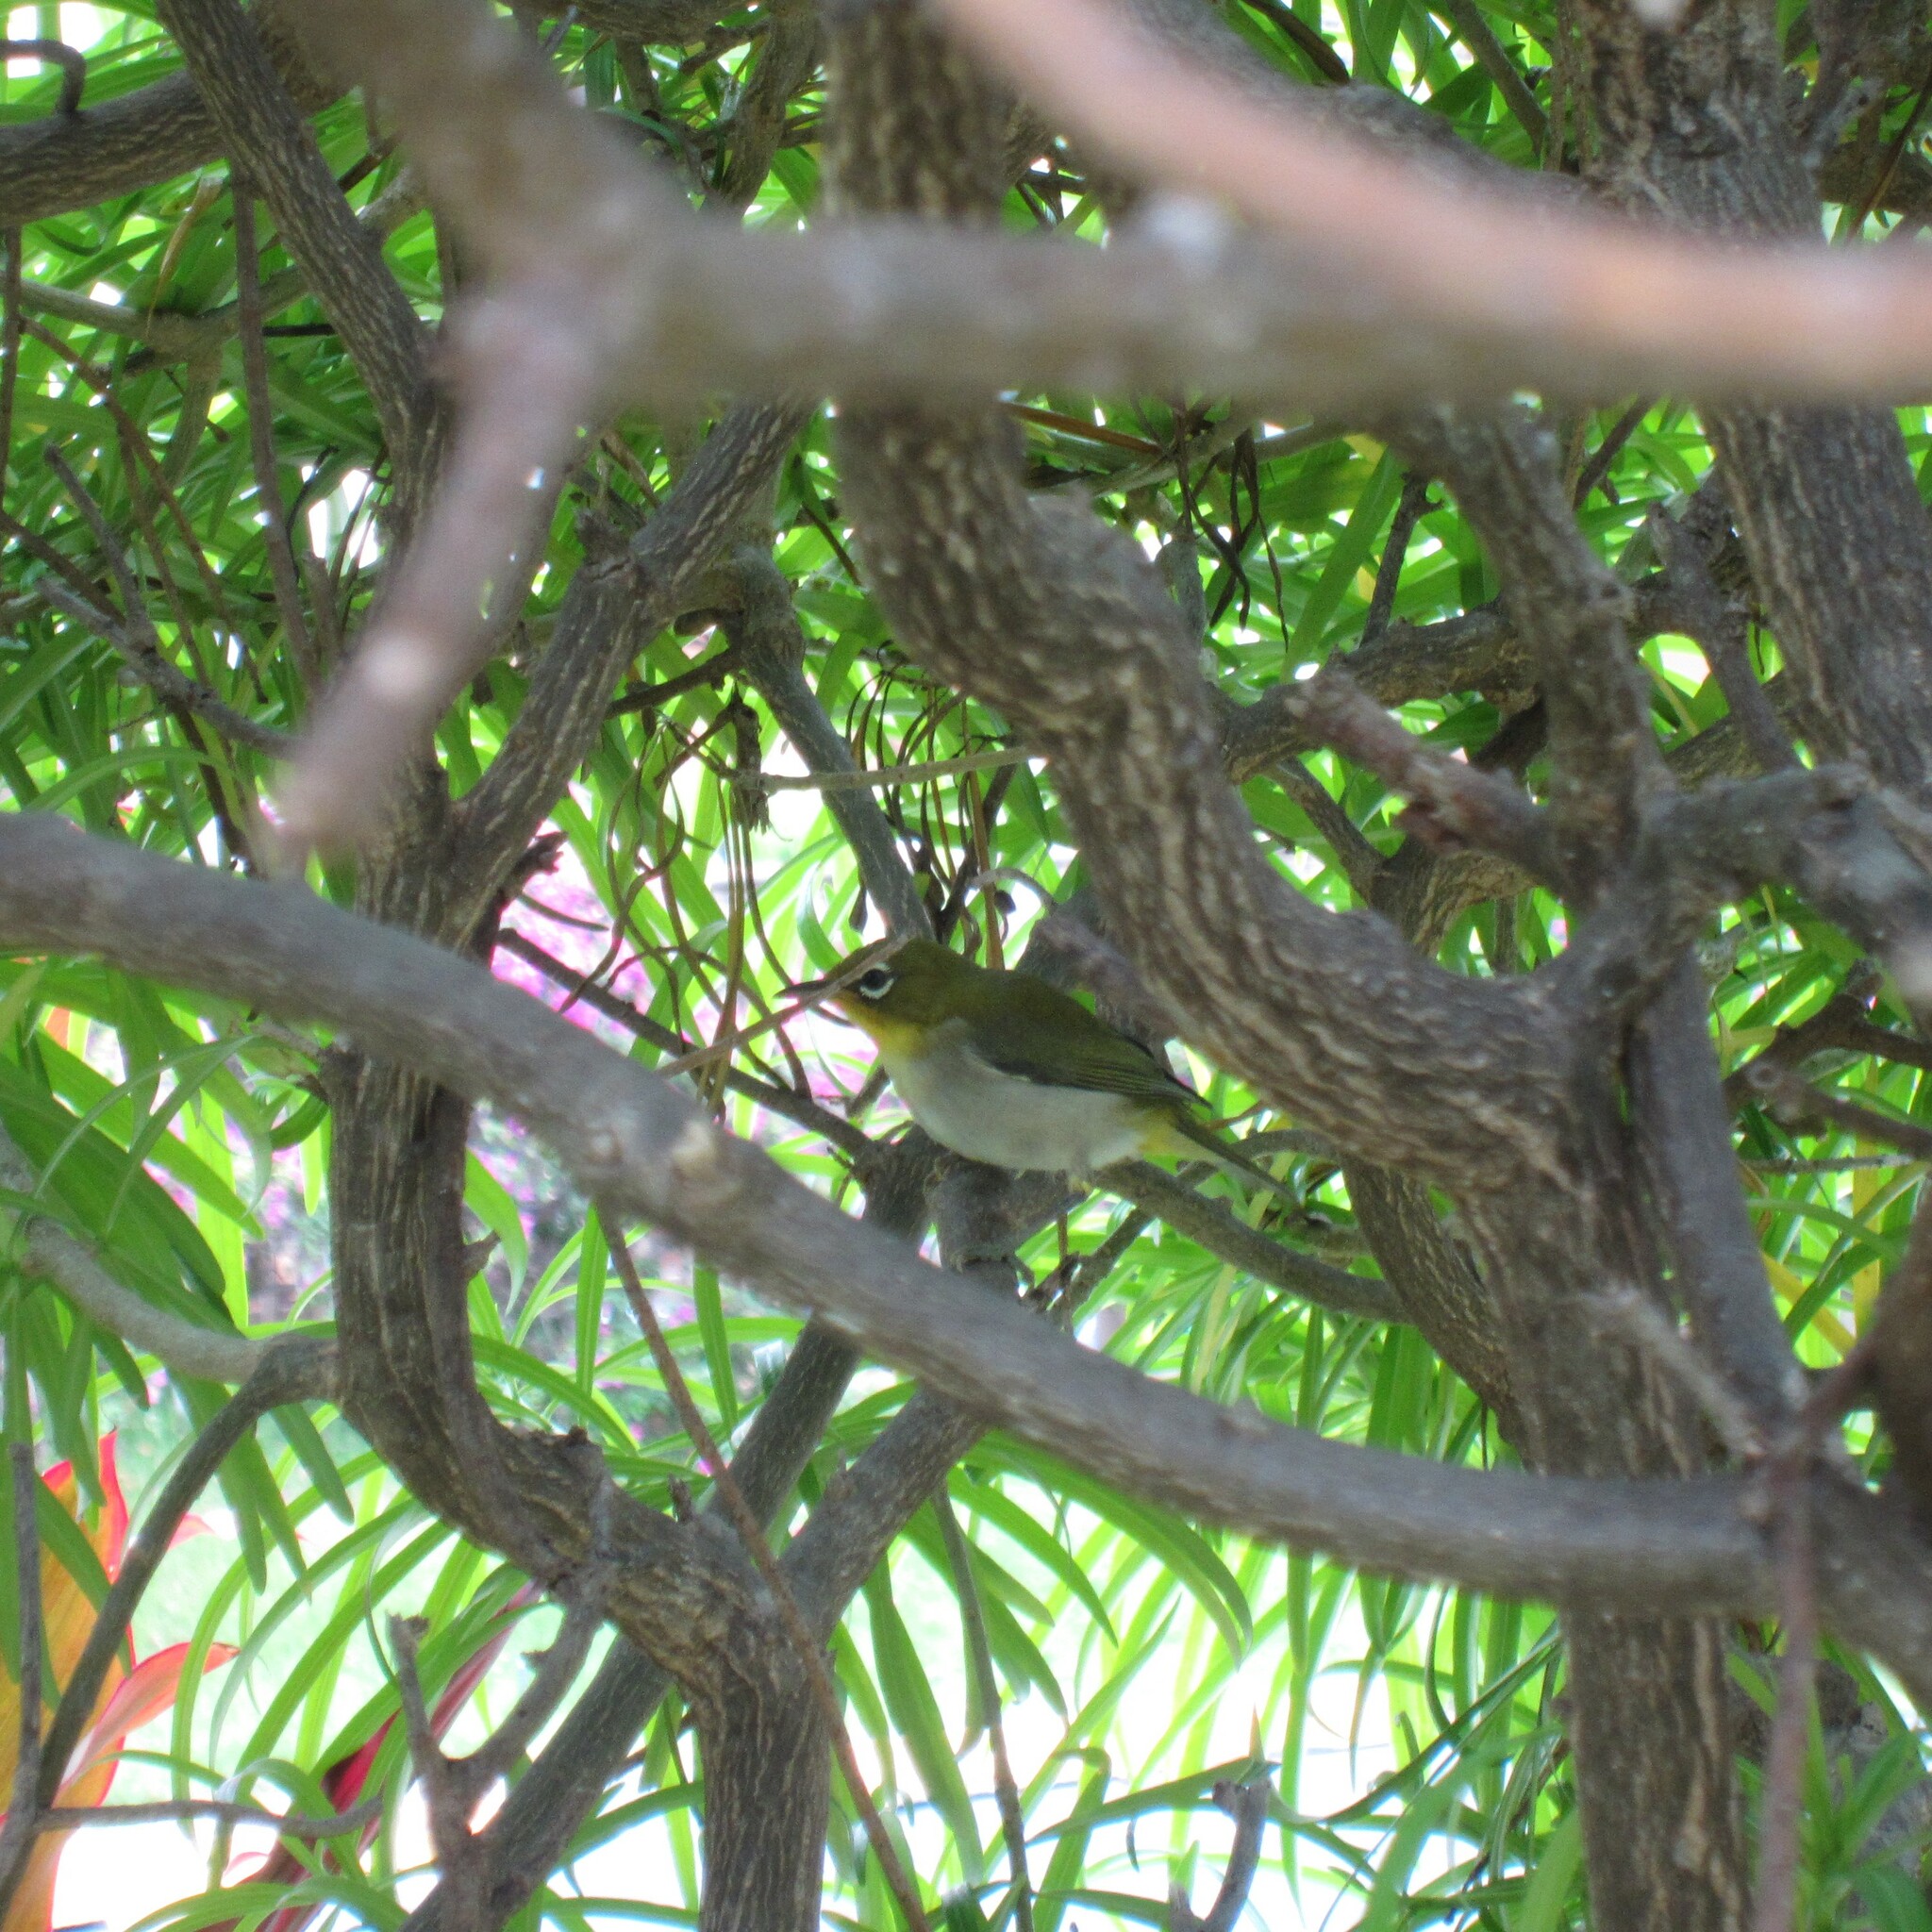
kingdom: Animalia
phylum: Chordata
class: Aves
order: Passeriformes
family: Zosteropidae
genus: Zosterops
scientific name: Zosterops japonicus
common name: Japanese white-eye
